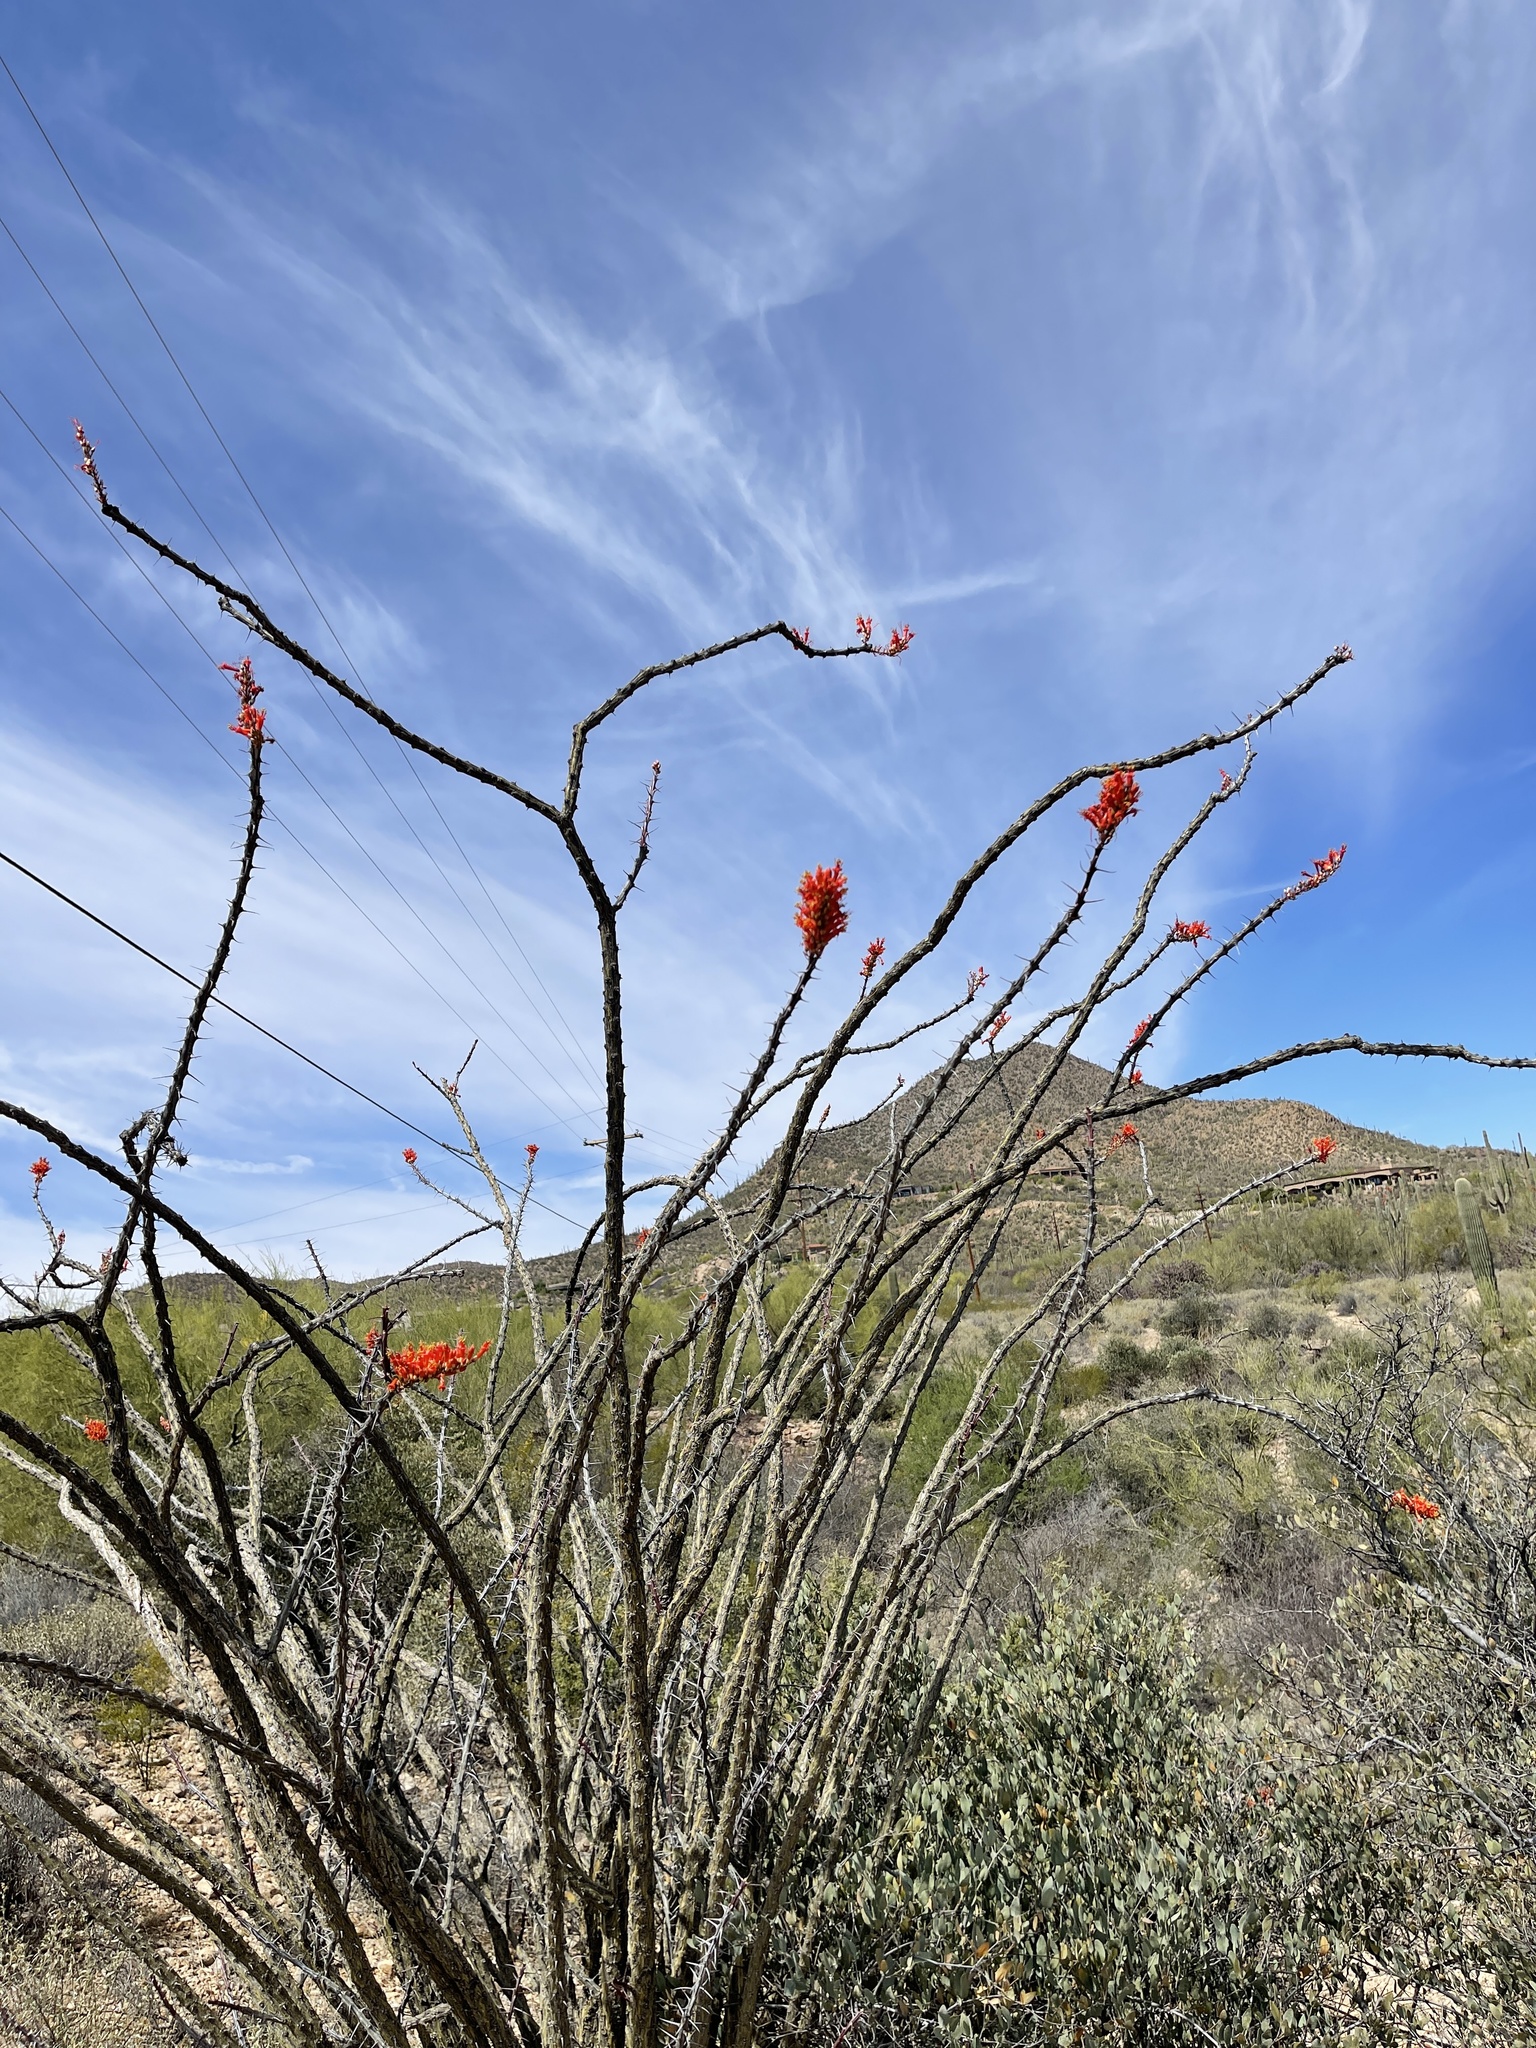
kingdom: Plantae
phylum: Tracheophyta
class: Magnoliopsida
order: Ericales
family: Fouquieriaceae
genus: Fouquieria
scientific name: Fouquieria splendens
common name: Vine-cactus
